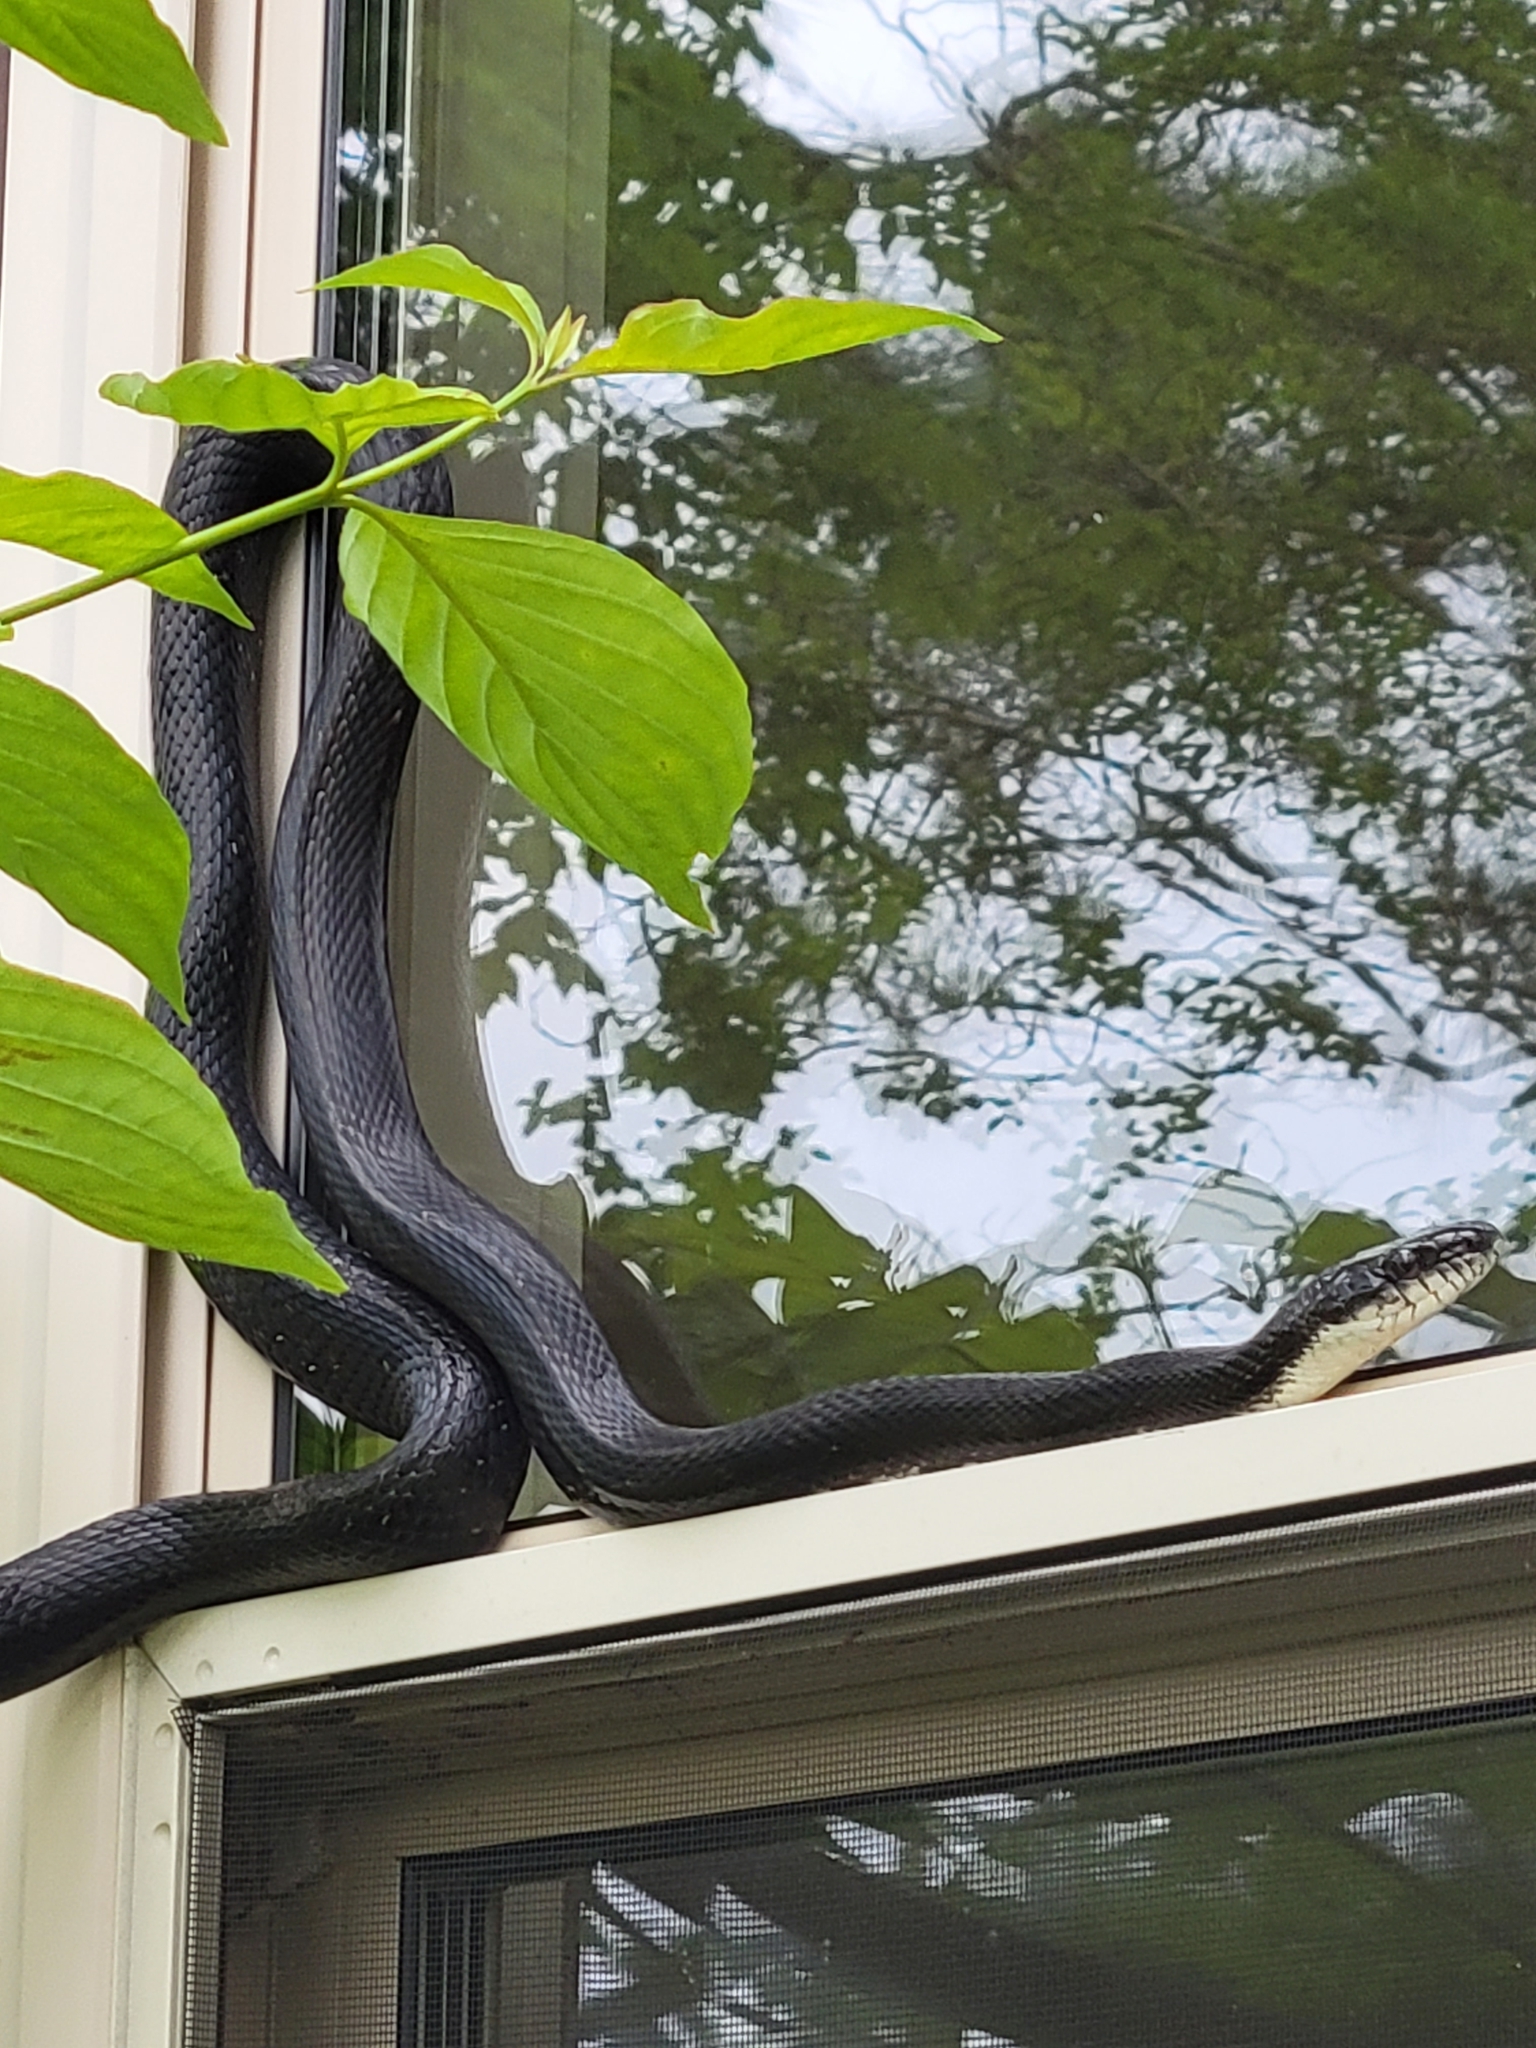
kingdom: Animalia
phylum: Chordata
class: Squamata
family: Colubridae
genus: Pantherophis
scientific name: Pantherophis alleghaniensis
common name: Eastern rat snake
